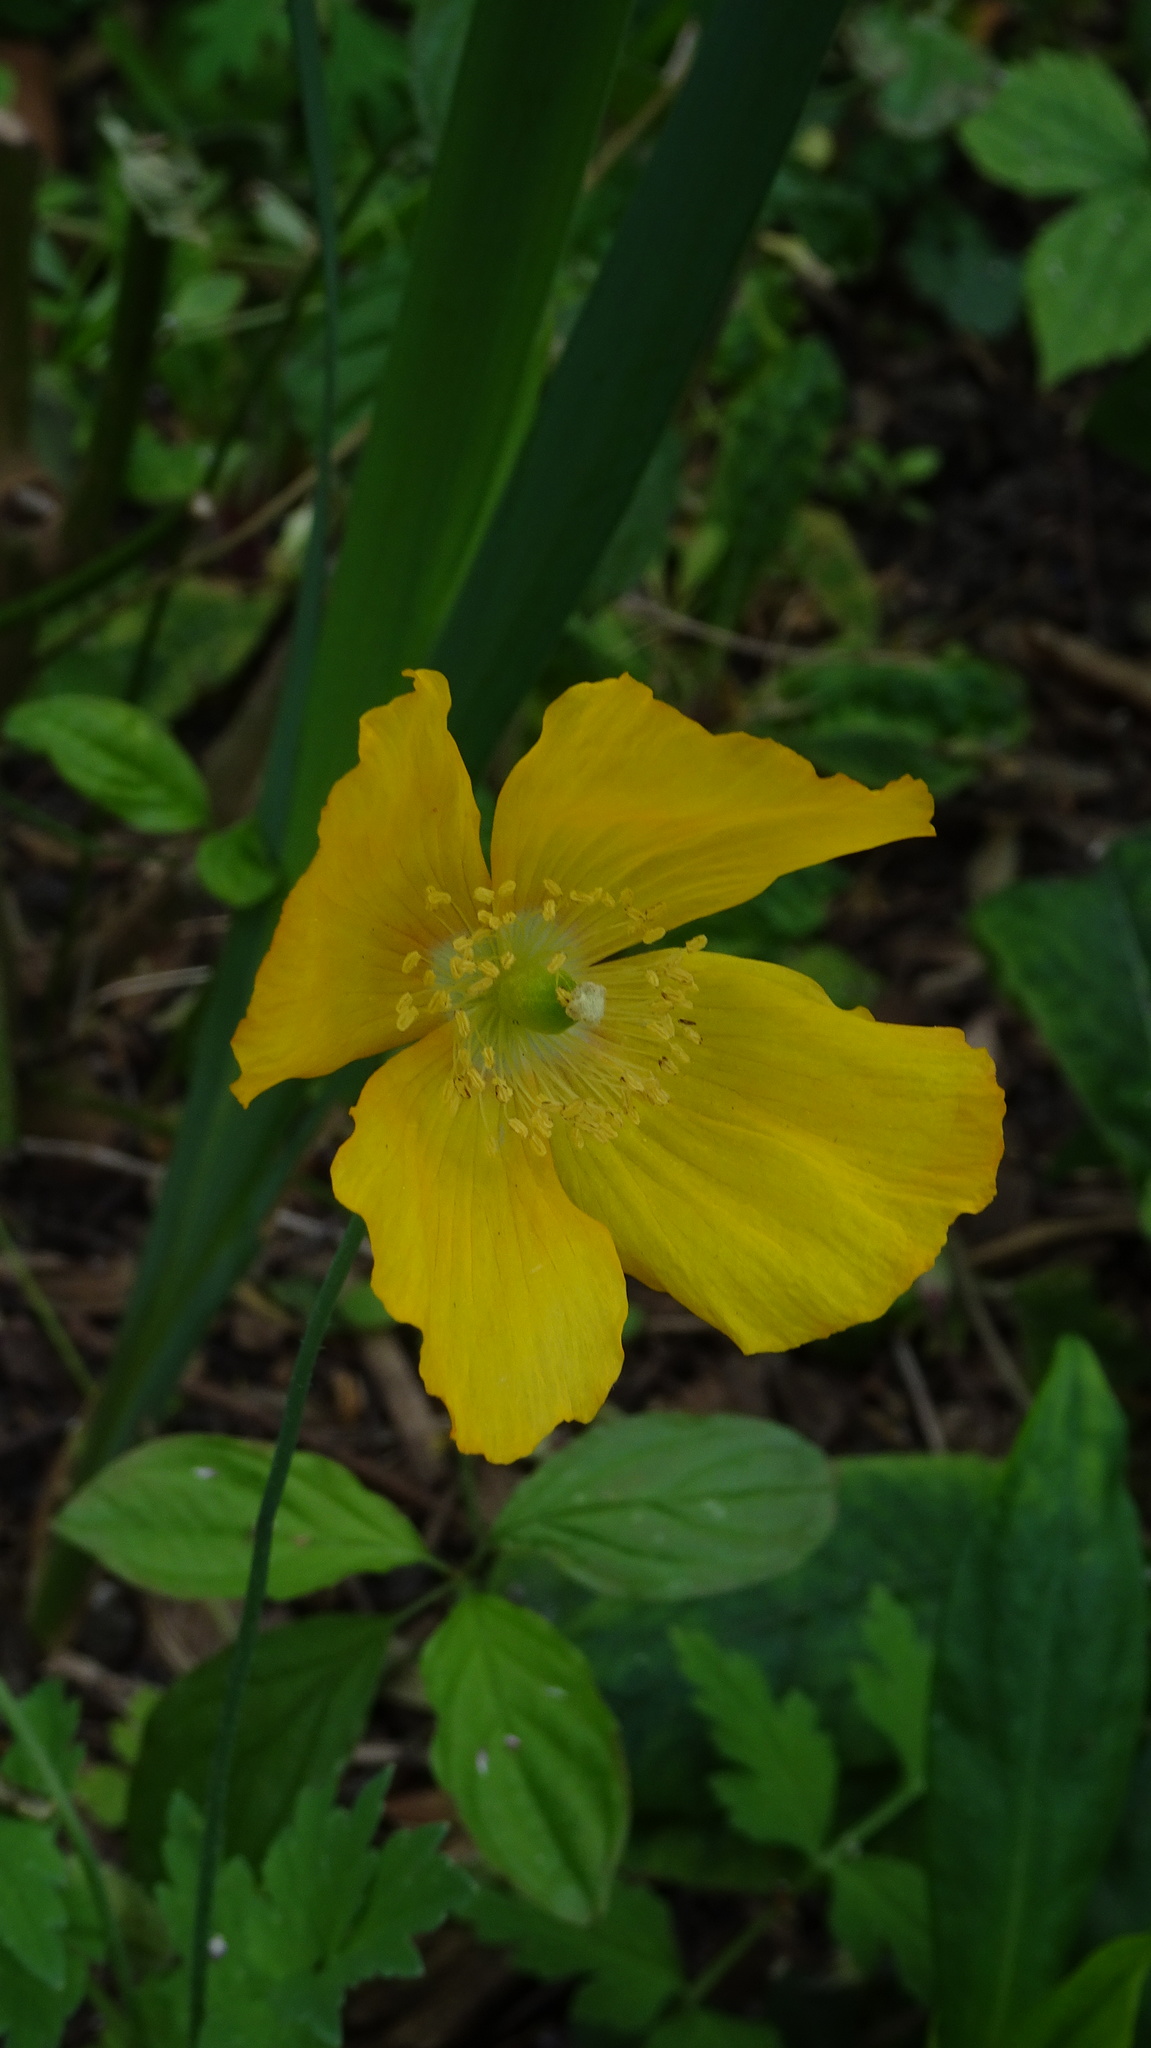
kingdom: Plantae
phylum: Tracheophyta
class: Magnoliopsida
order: Ranunculales
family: Papaveraceae
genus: Papaver
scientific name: Papaver cambricum
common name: Poppy
